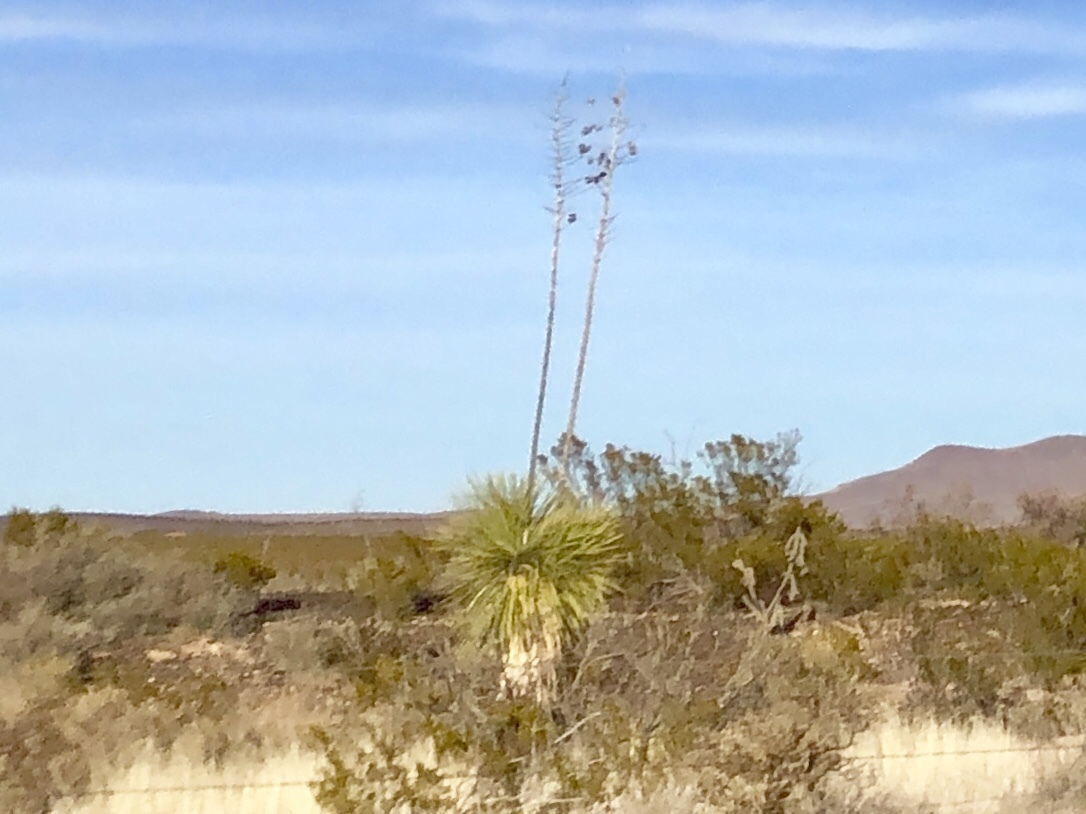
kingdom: Plantae
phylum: Tracheophyta
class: Liliopsida
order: Asparagales
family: Asparagaceae
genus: Yucca
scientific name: Yucca elata
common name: Palmella
